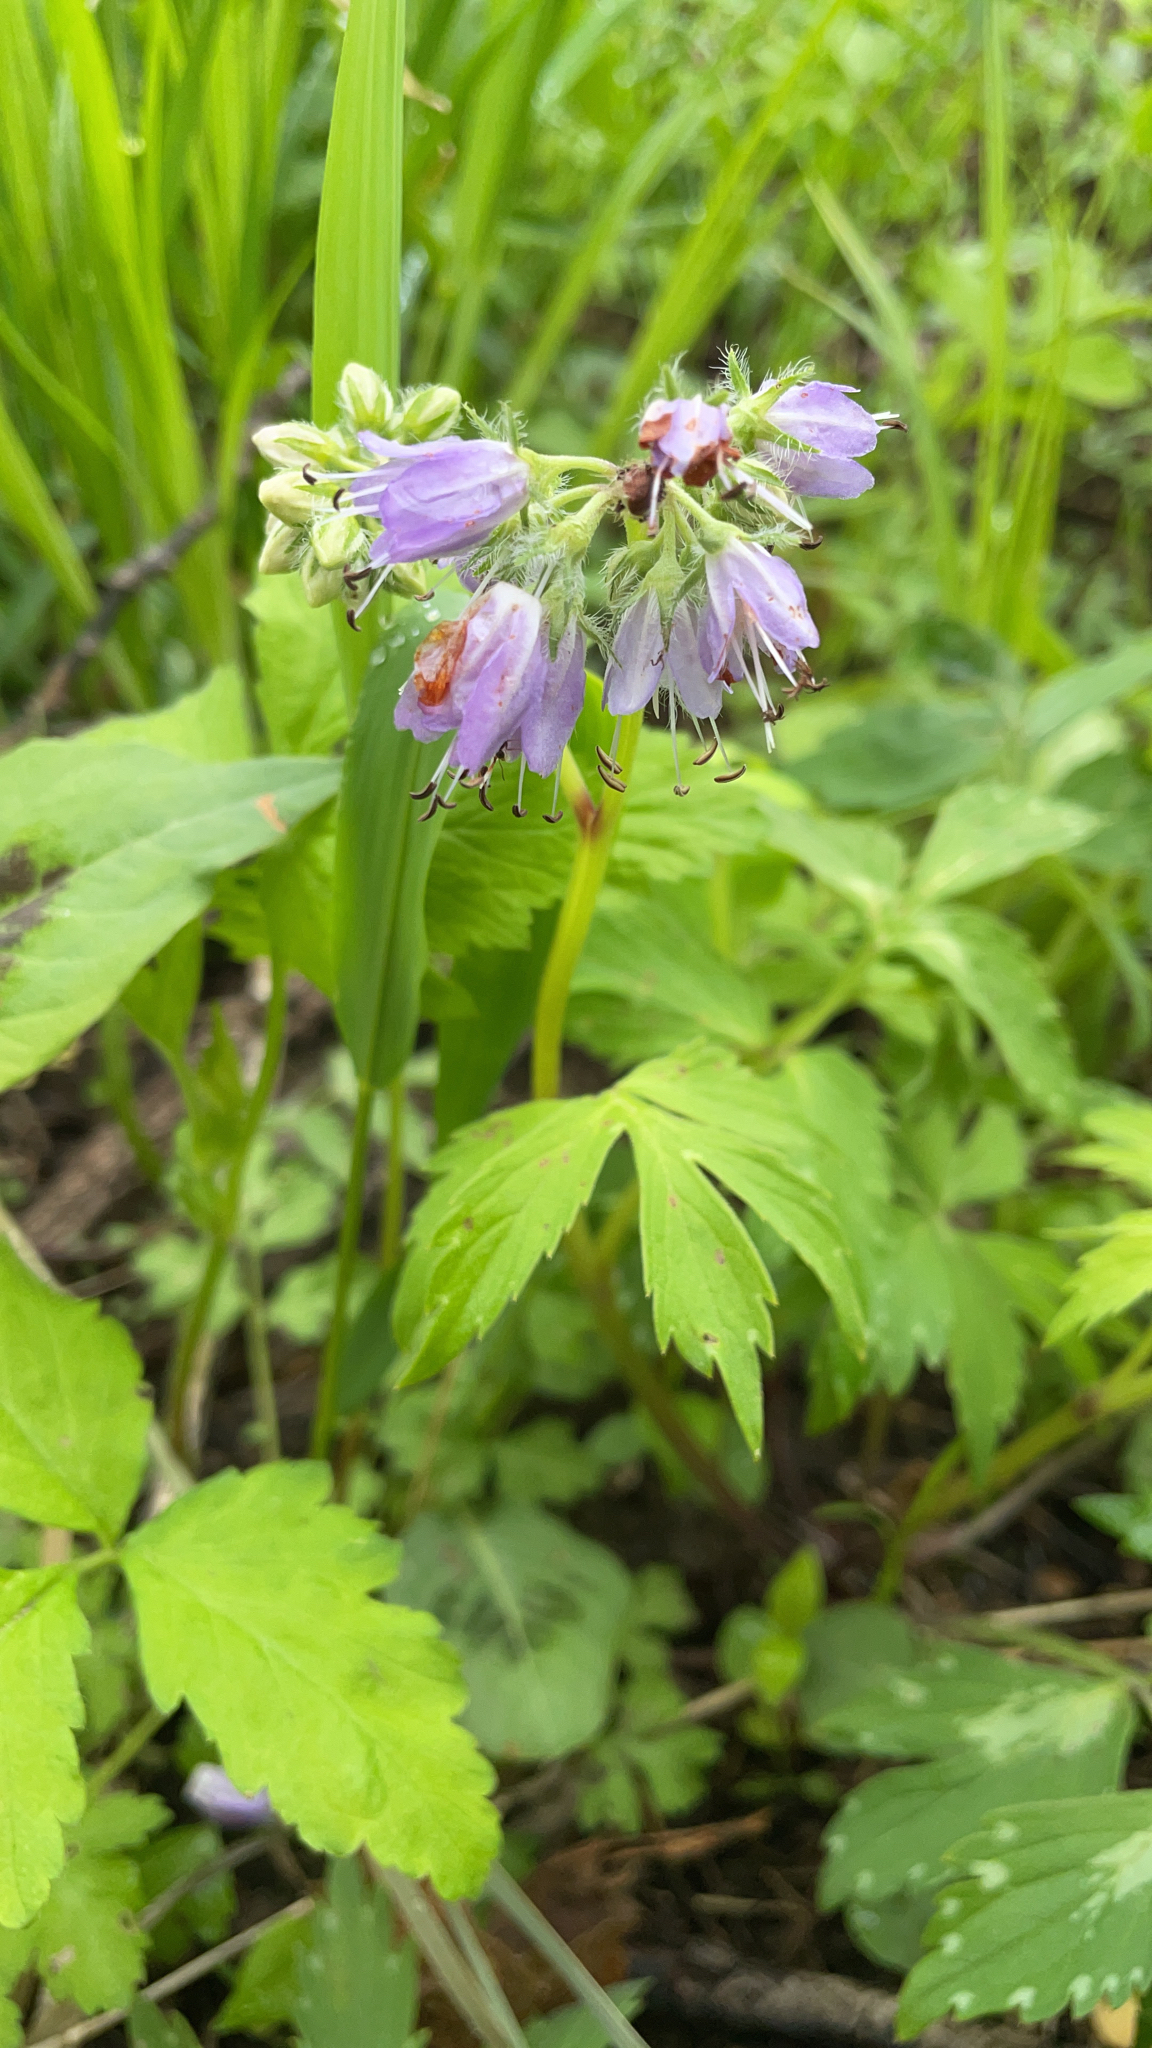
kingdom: Plantae
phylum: Tracheophyta
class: Magnoliopsida
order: Boraginales
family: Hydrophyllaceae
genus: Hydrophyllum
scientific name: Hydrophyllum virginianum
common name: Virginia waterleaf
